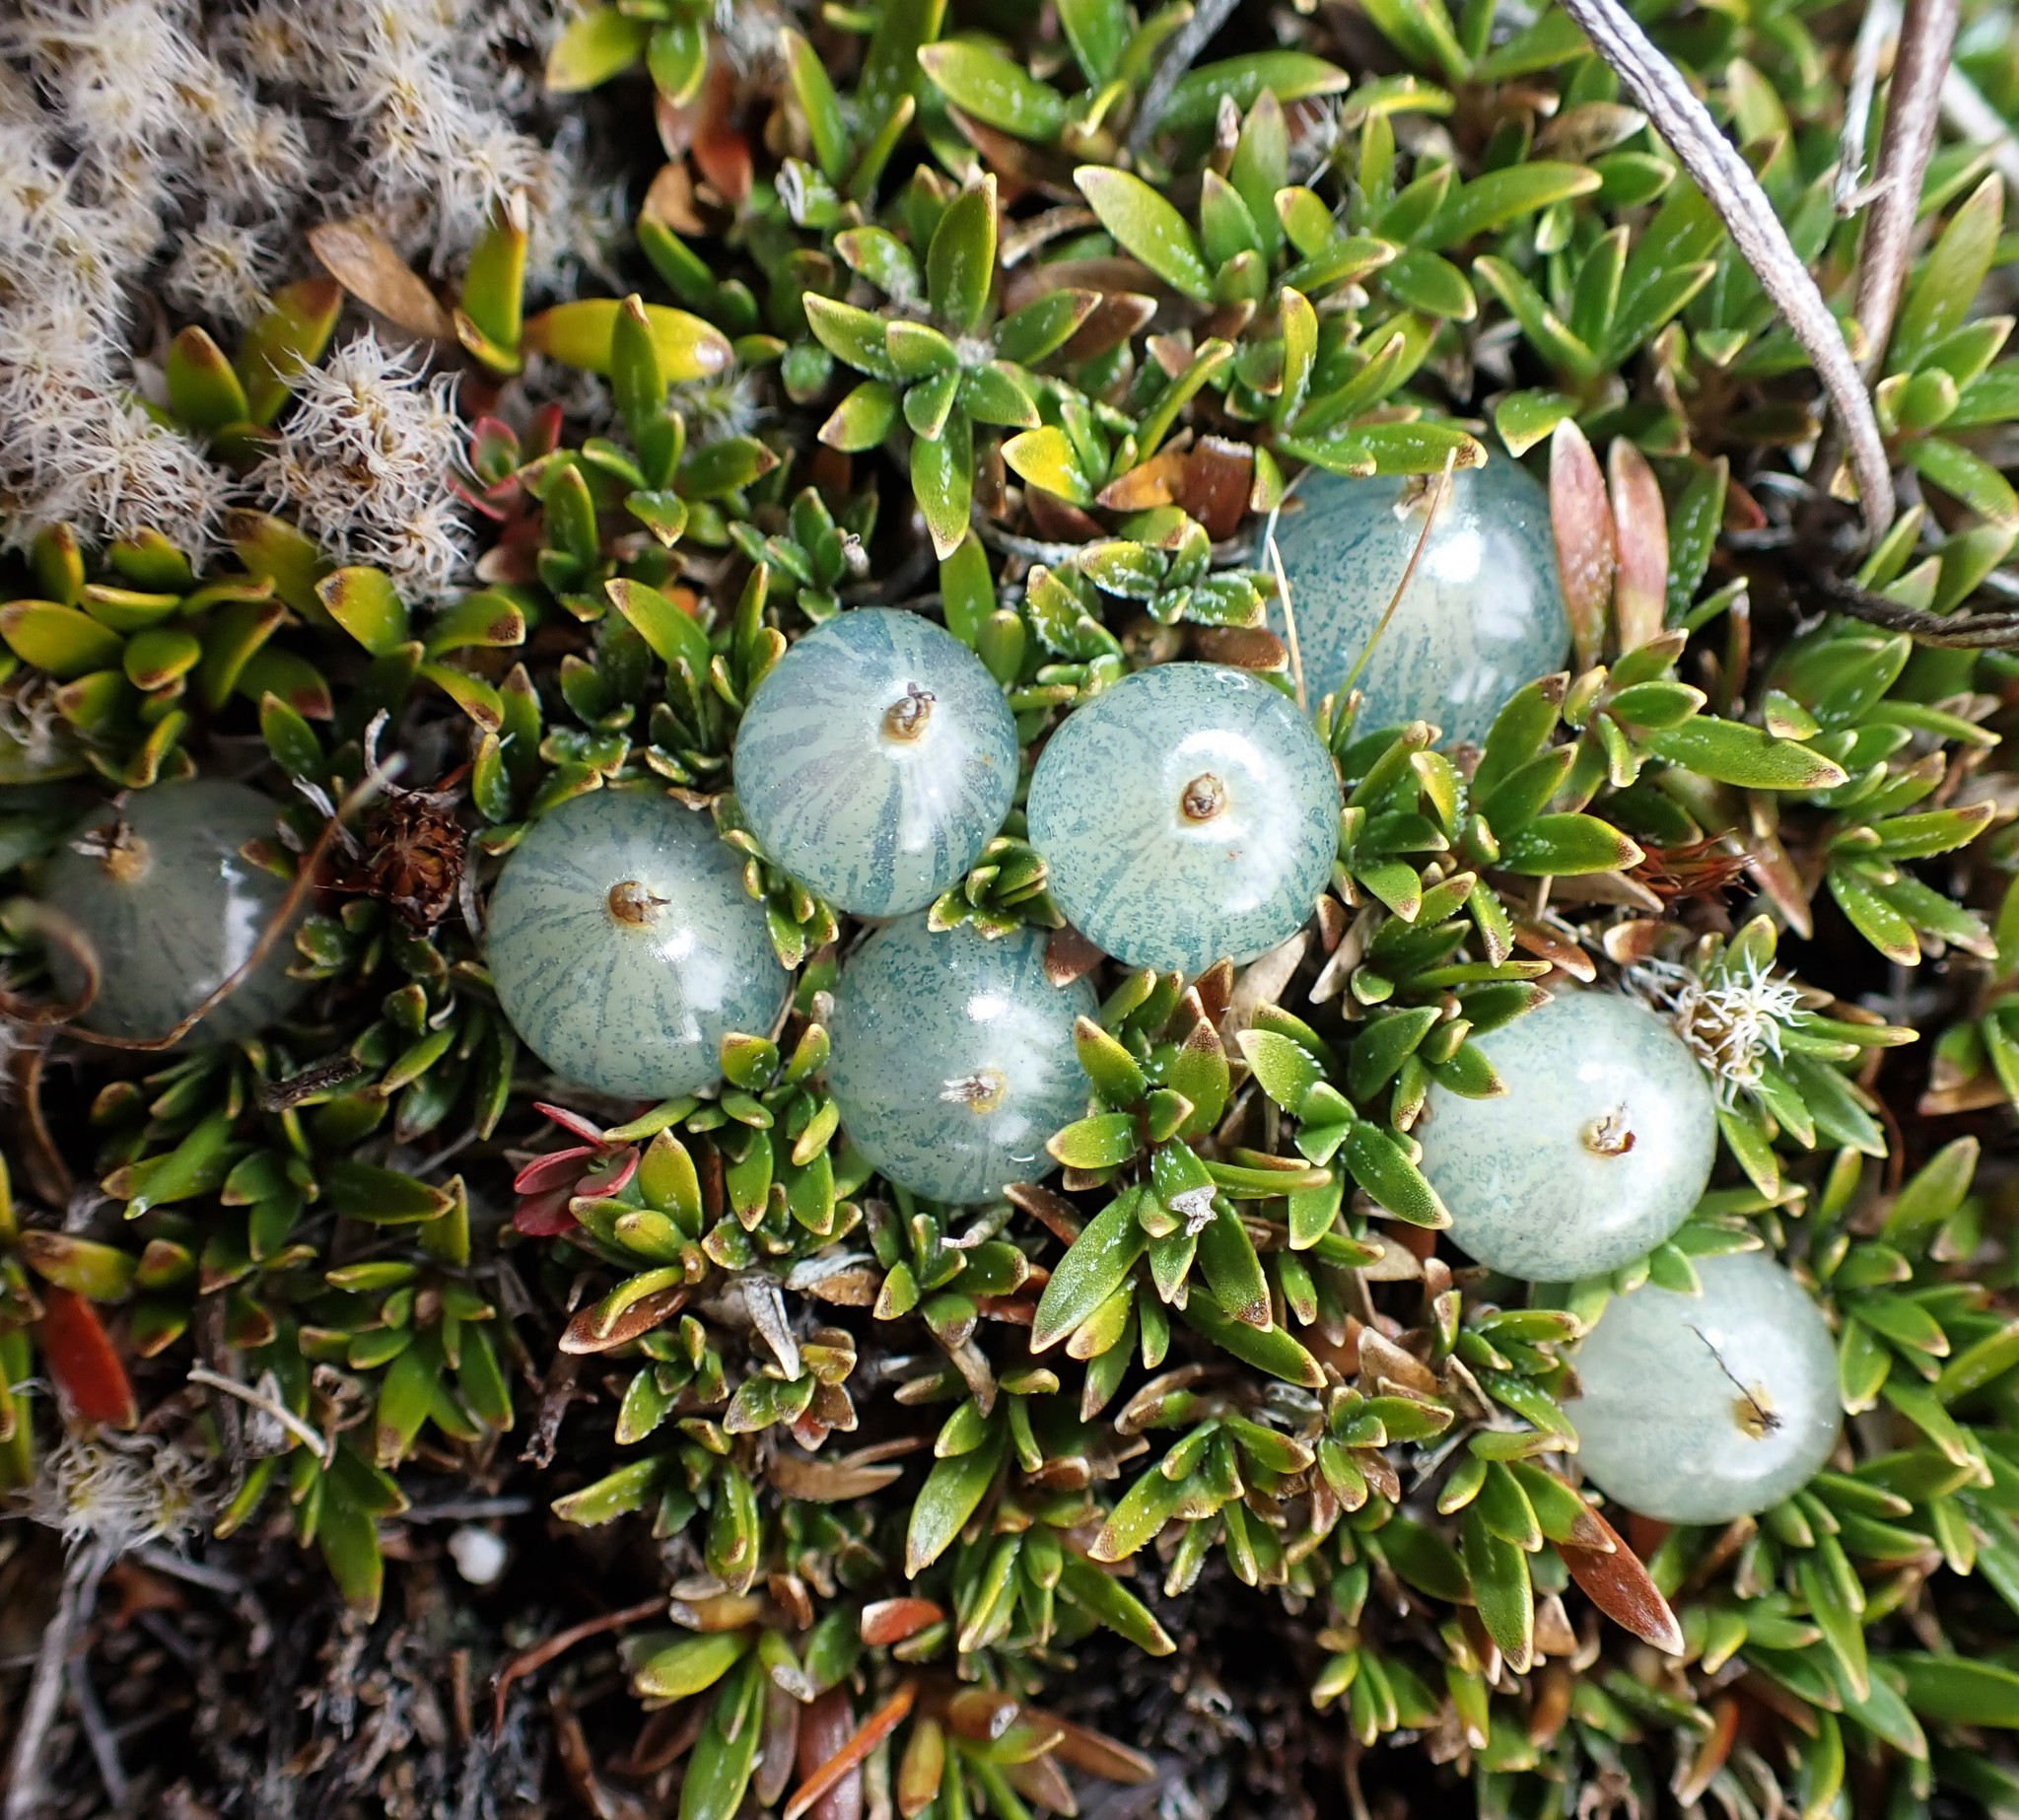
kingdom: Plantae
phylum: Tracheophyta
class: Magnoliopsida
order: Gentianales
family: Rubiaceae
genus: Coprosma
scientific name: Coprosma petriei
